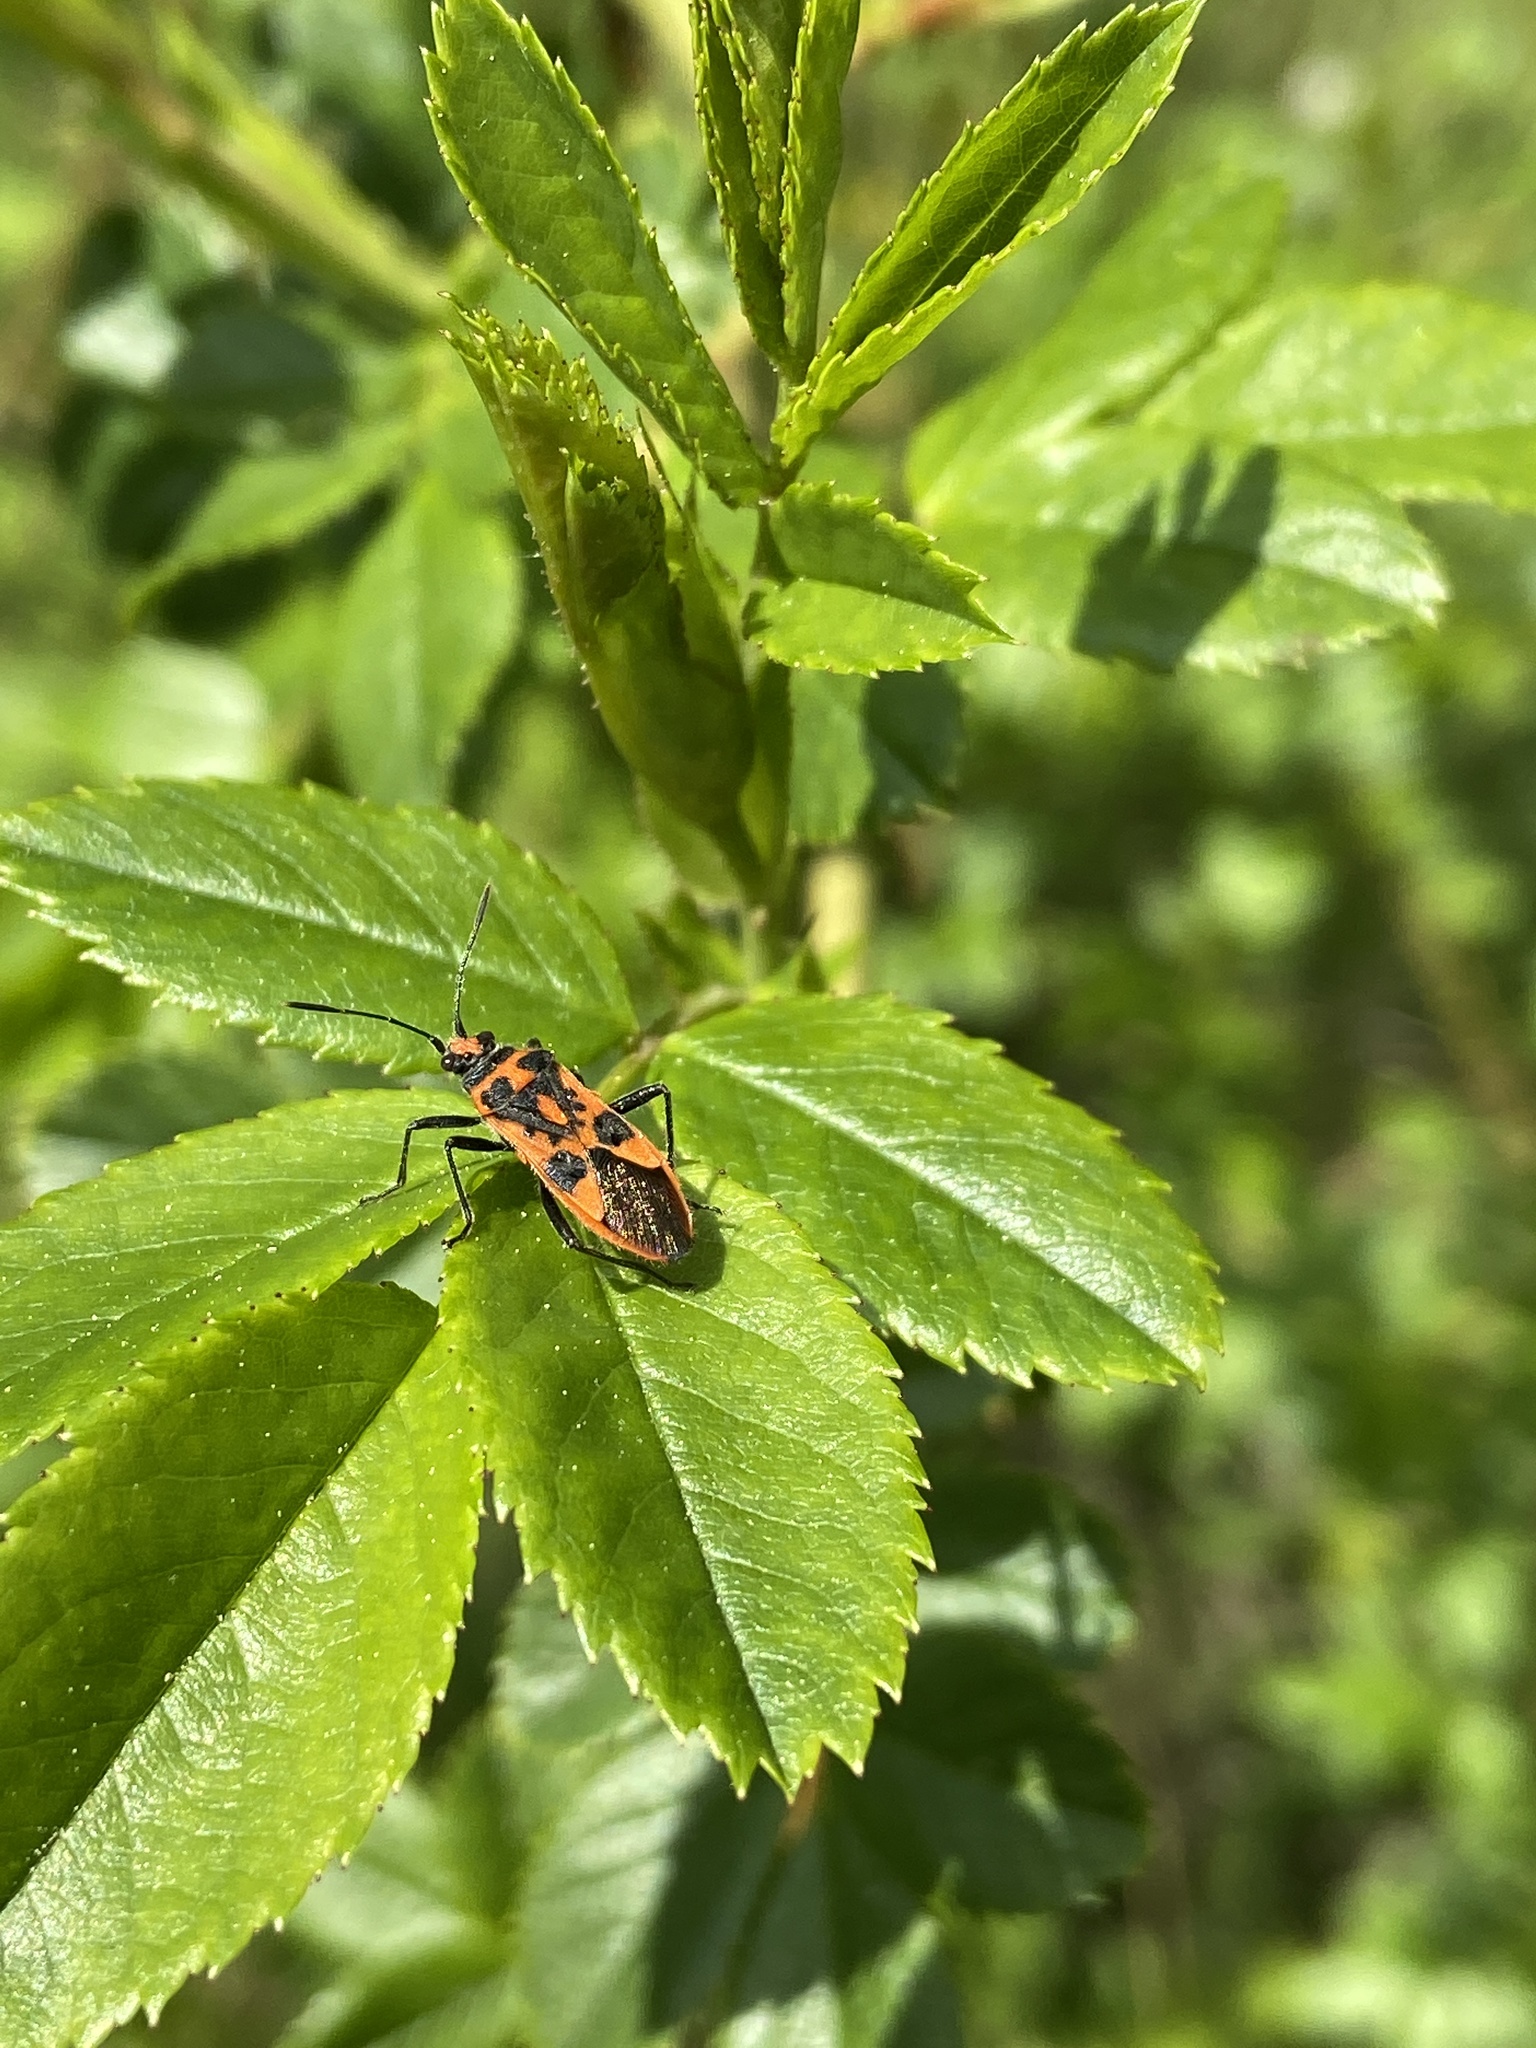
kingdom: Animalia
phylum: Arthropoda
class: Insecta
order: Hemiptera
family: Rhopalidae
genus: Corizus
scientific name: Corizus hyoscyami
